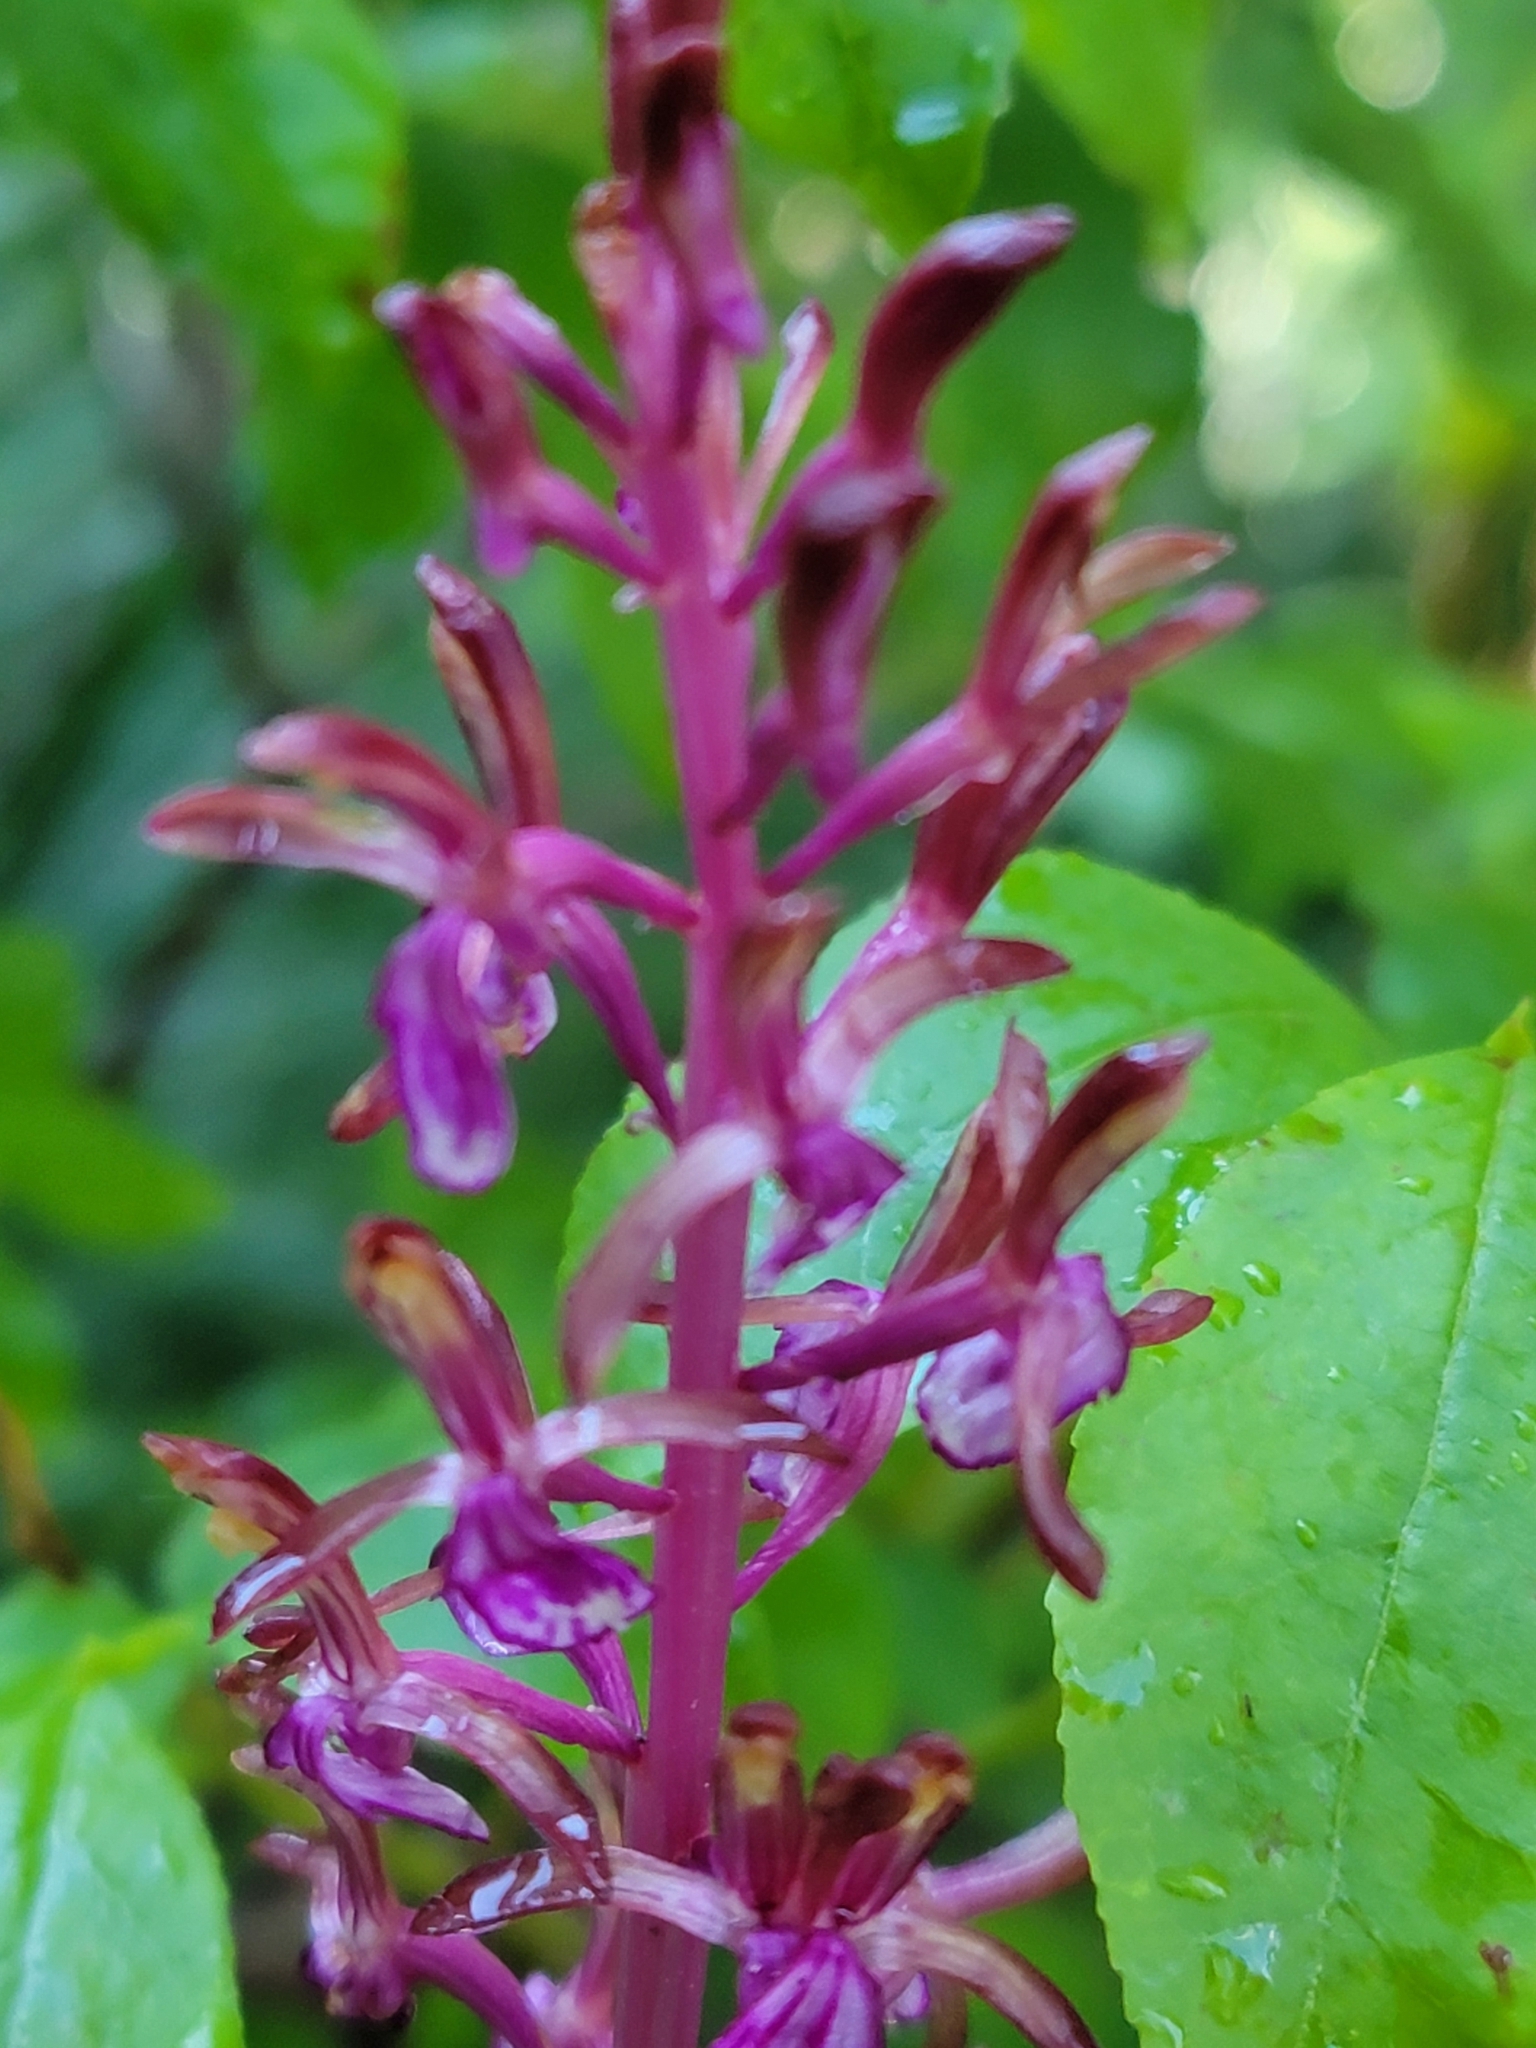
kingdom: Plantae
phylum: Tracheophyta
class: Liliopsida
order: Asparagales
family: Orchidaceae
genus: Corallorhiza
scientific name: Corallorhiza mertensiana
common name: Pacific coralroot
